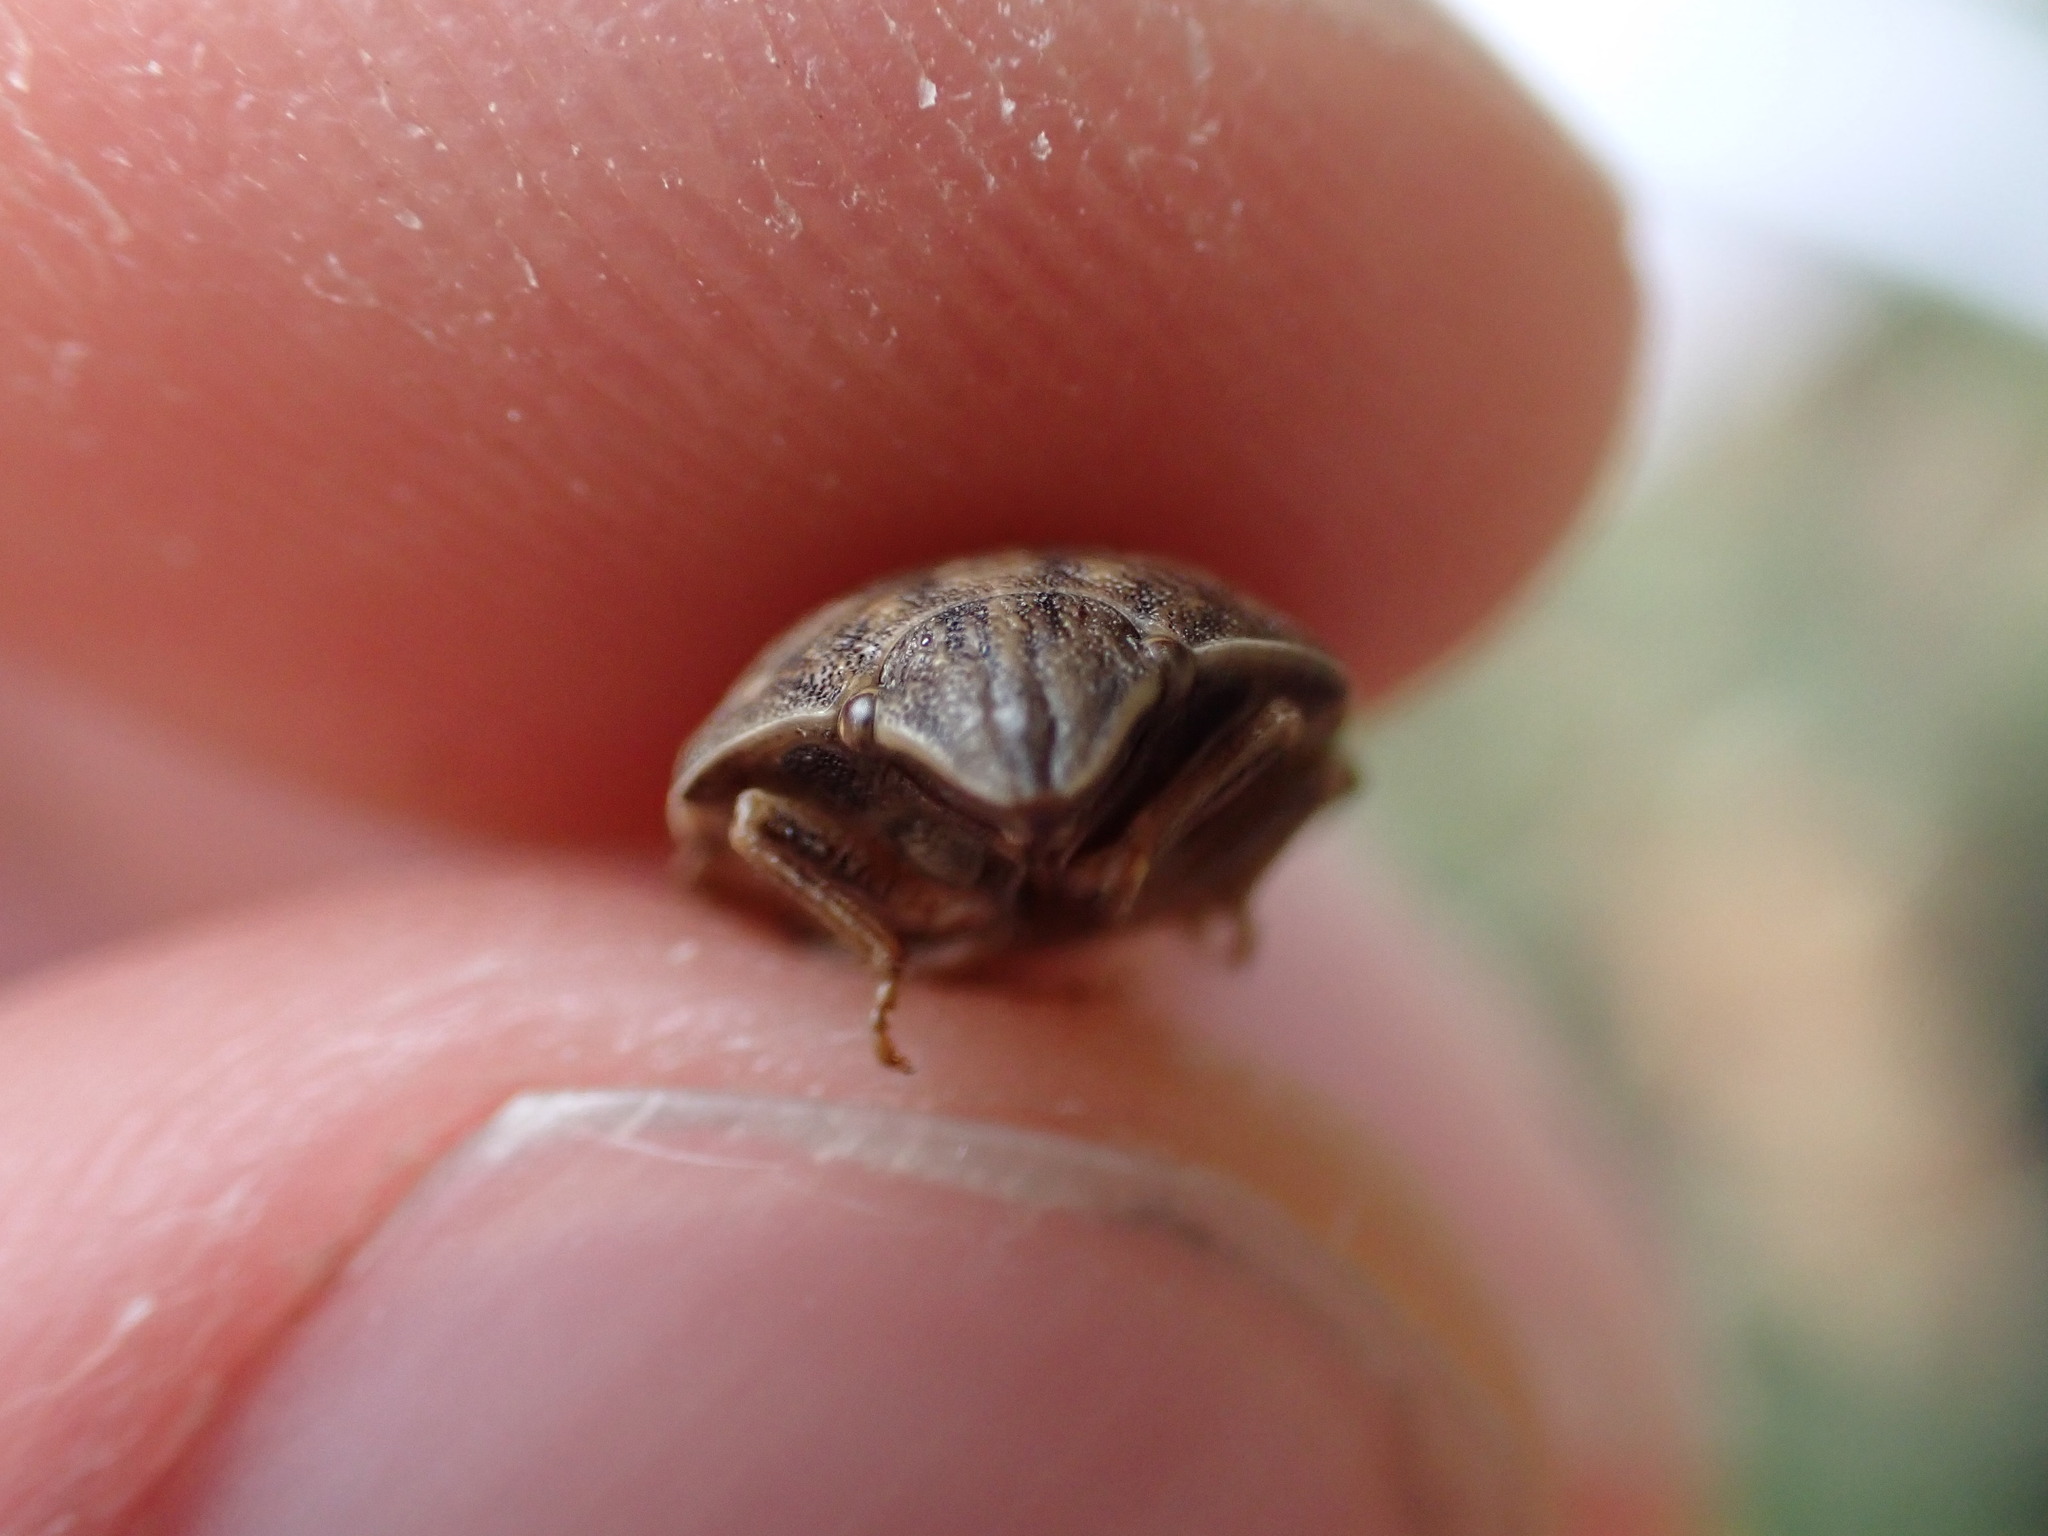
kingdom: Animalia
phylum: Arthropoda
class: Insecta
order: Hemiptera
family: Scutelleridae
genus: Eurygaster
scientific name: Eurygaster maura
